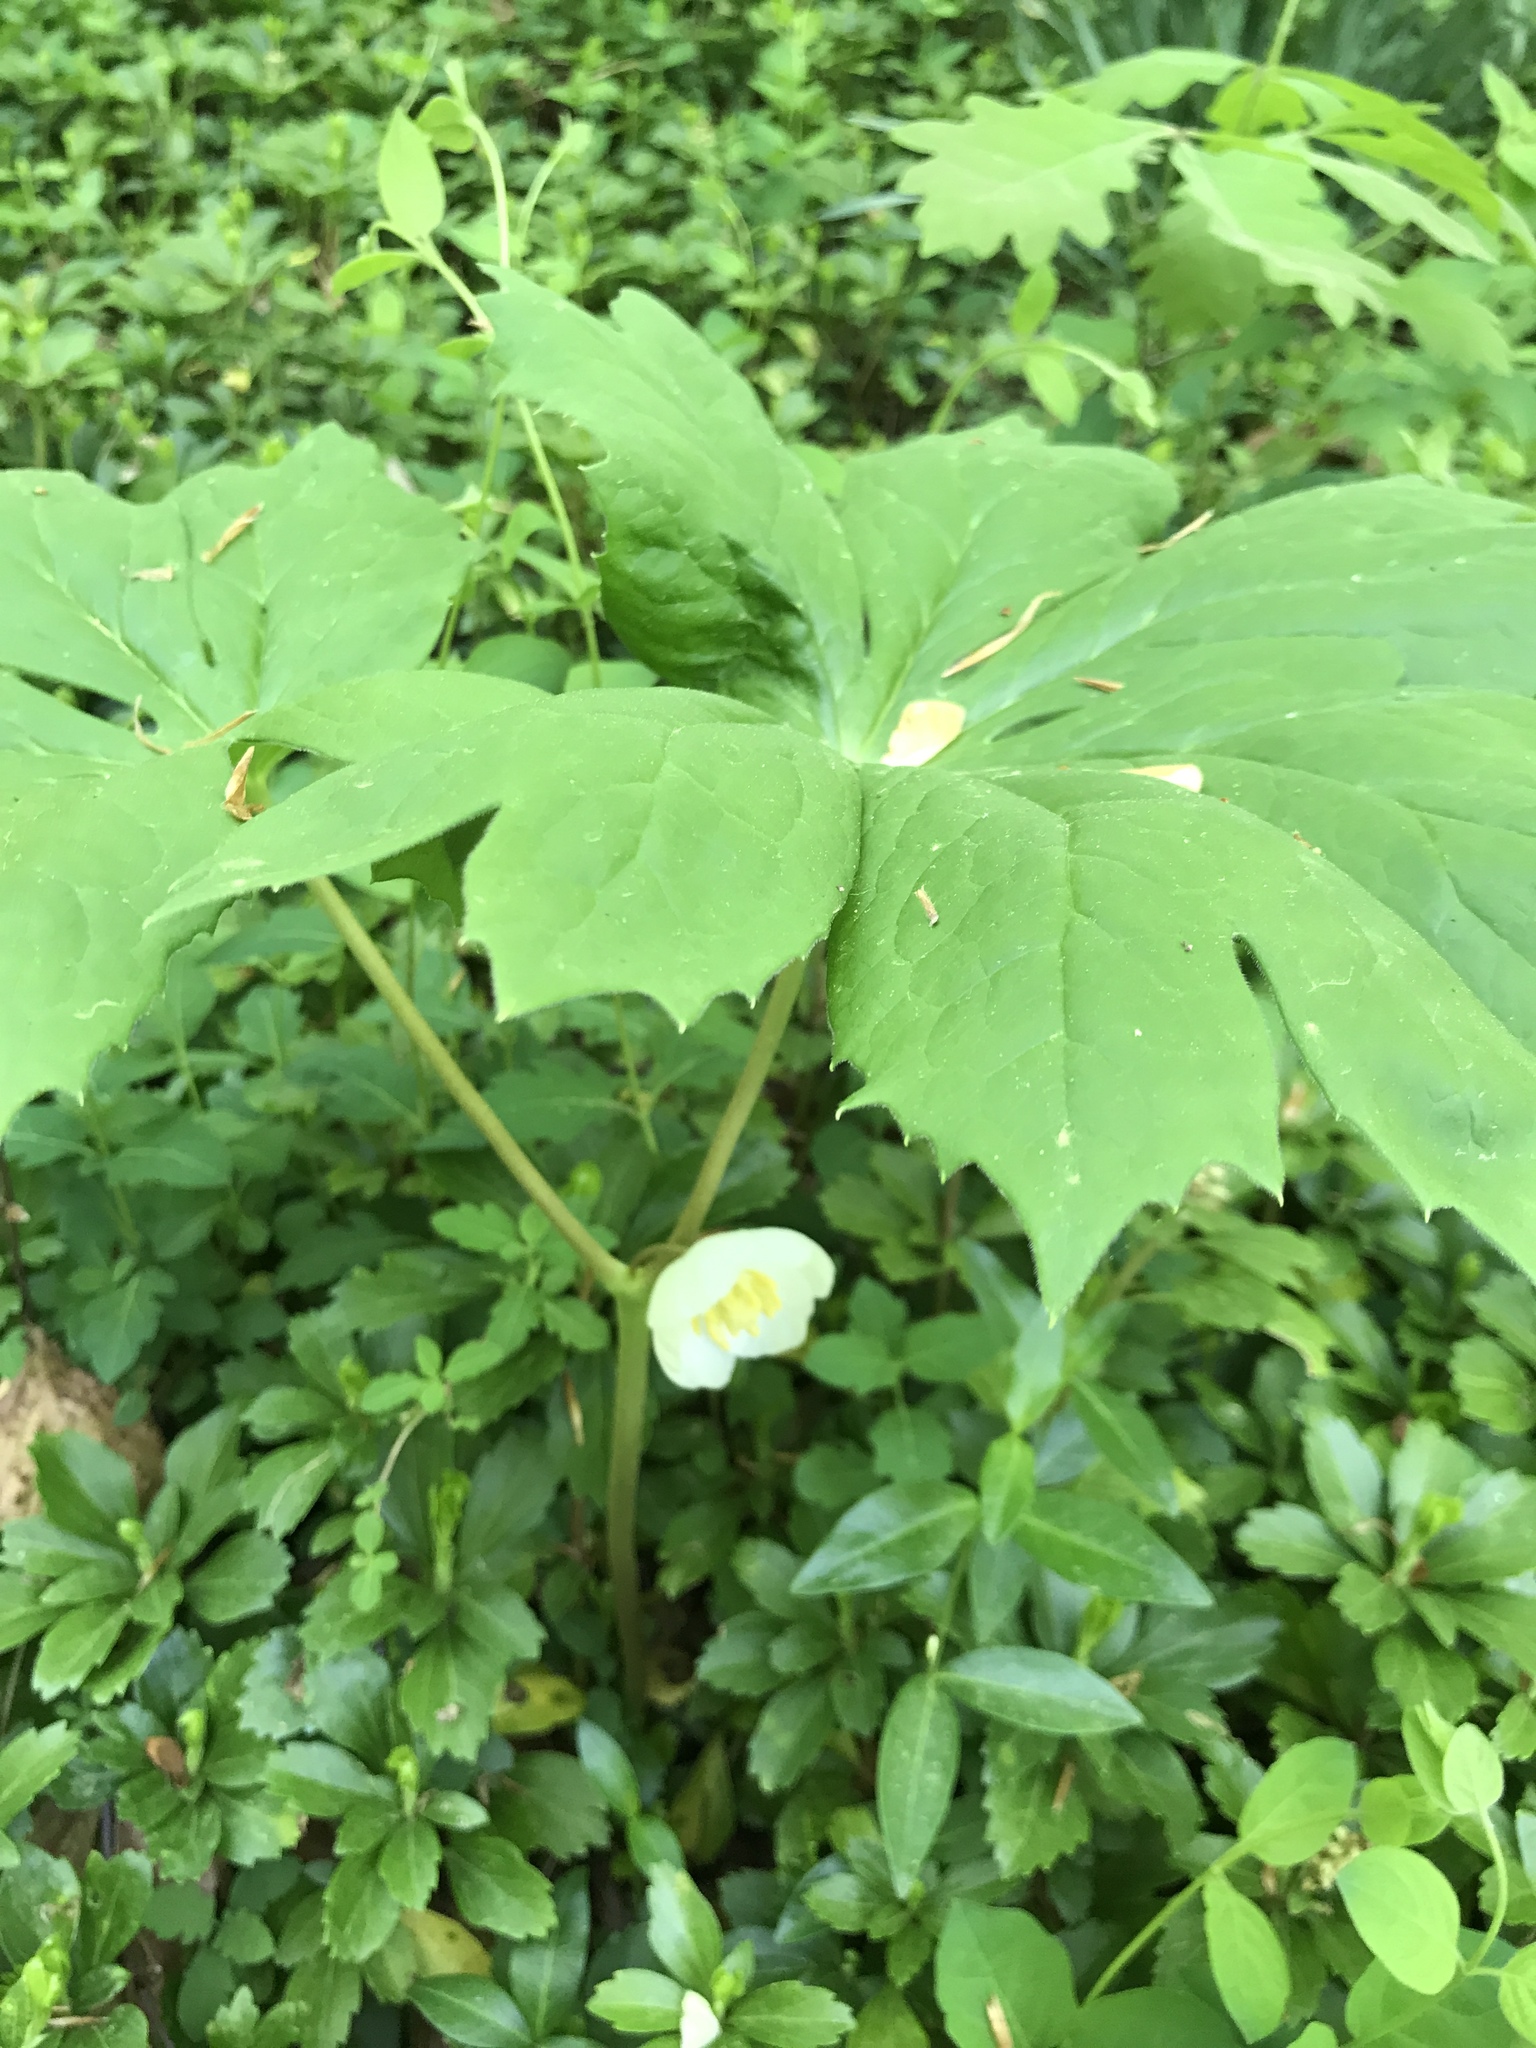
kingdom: Plantae
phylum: Tracheophyta
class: Magnoliopsida
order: Ranunculales
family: Berberidaceae
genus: Podophyllum
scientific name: Podophyllum peltatum
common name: Wild mandrake
